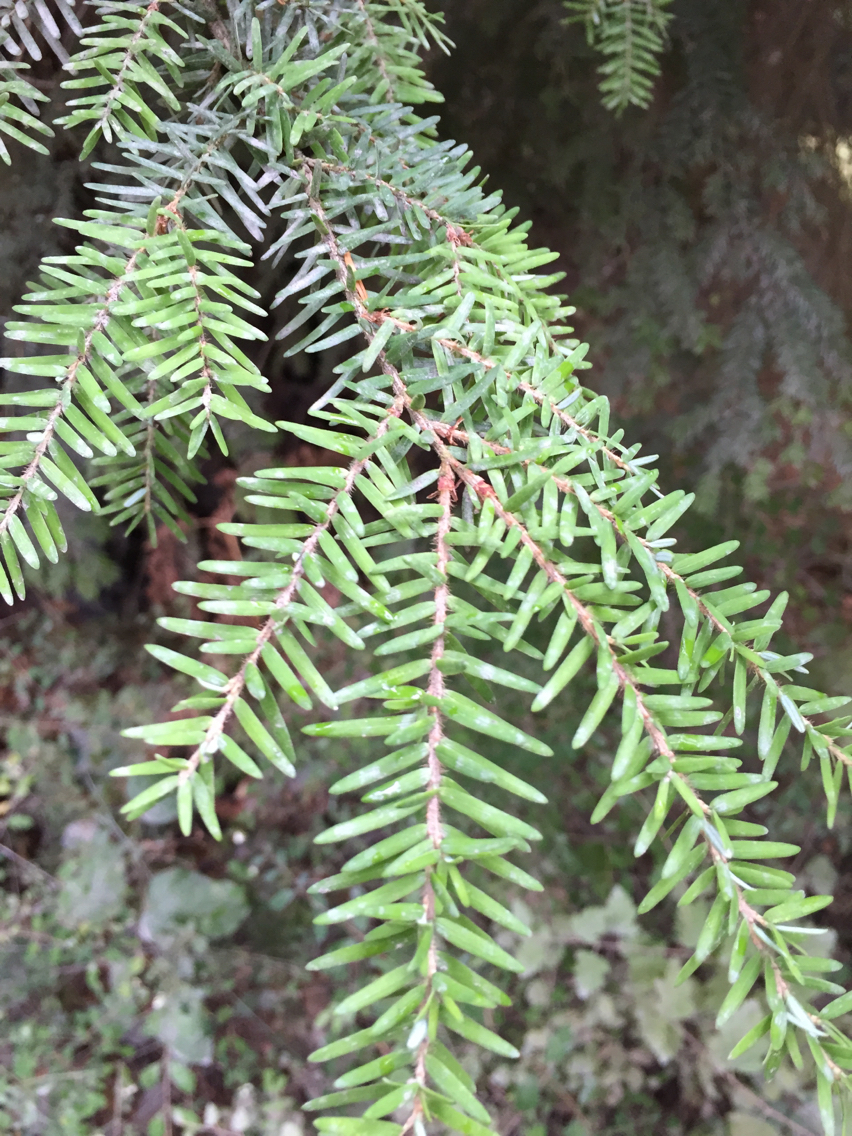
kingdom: Plantae
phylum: Tracheophyta
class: Pinopsida
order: Pinales
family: Pinaceae
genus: Tsuga
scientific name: Tsuga heterophylla
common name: Western hemlock
